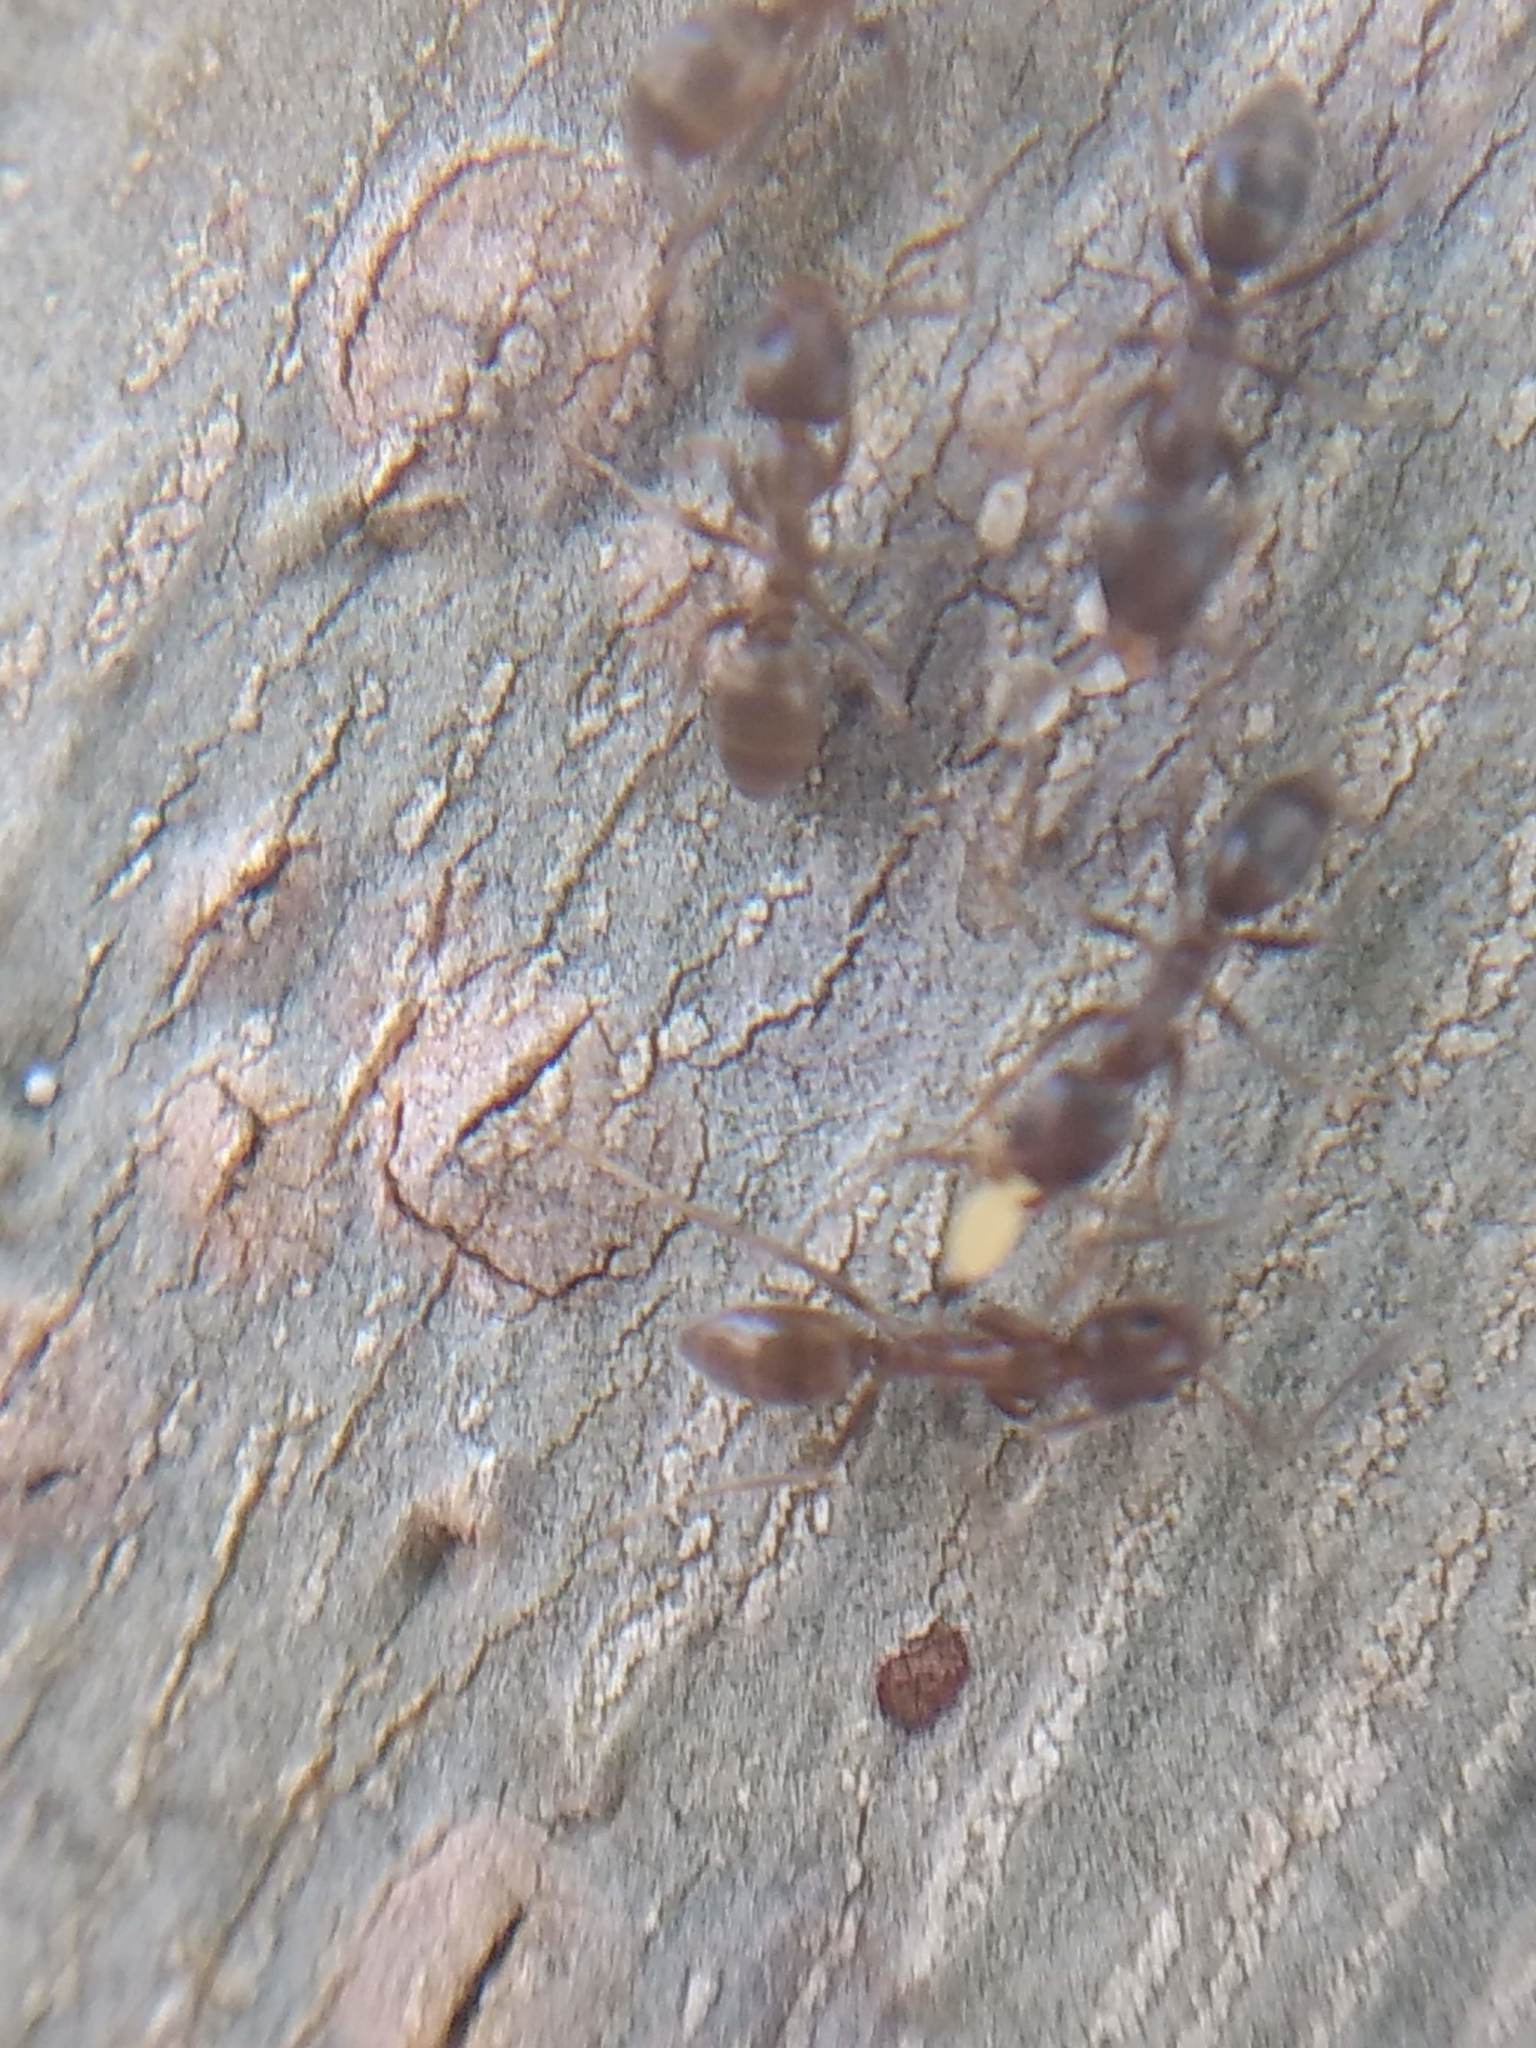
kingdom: Animalia
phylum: Arthropoda
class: Insecta
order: Hymenoptera
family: Formicidae
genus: Linepithema
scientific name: Linepithema humile
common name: Argentine ant
